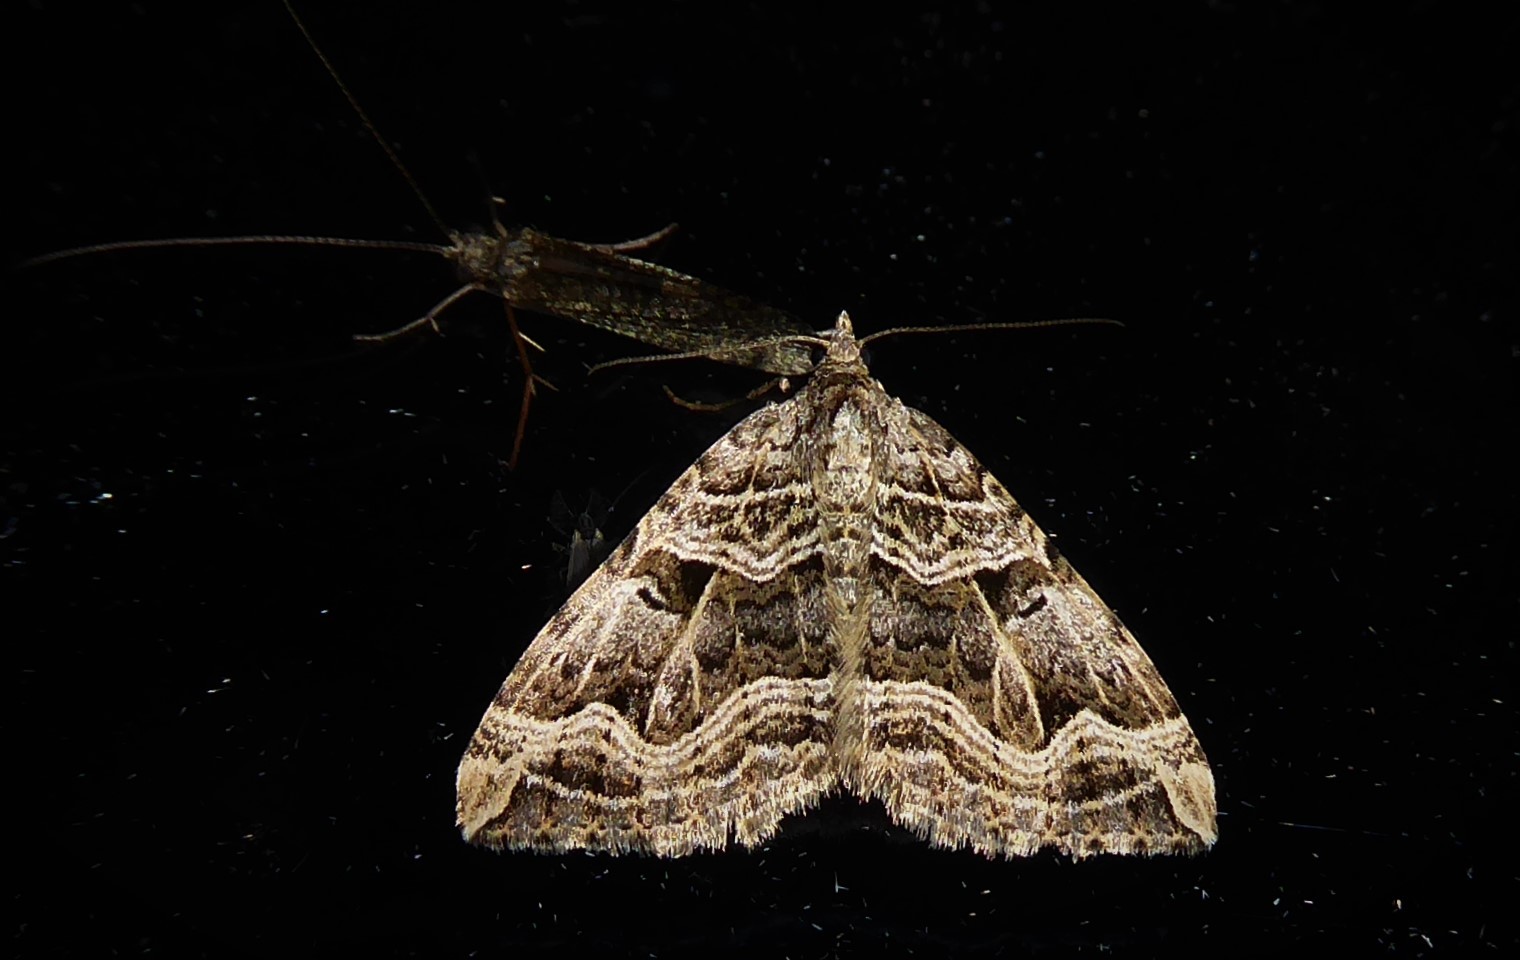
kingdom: Animalia
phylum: Arthropoda
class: Insecta
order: Lepidoptera
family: Geometridae
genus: Xanthorhoe
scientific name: Xanthorhoe semifissata
